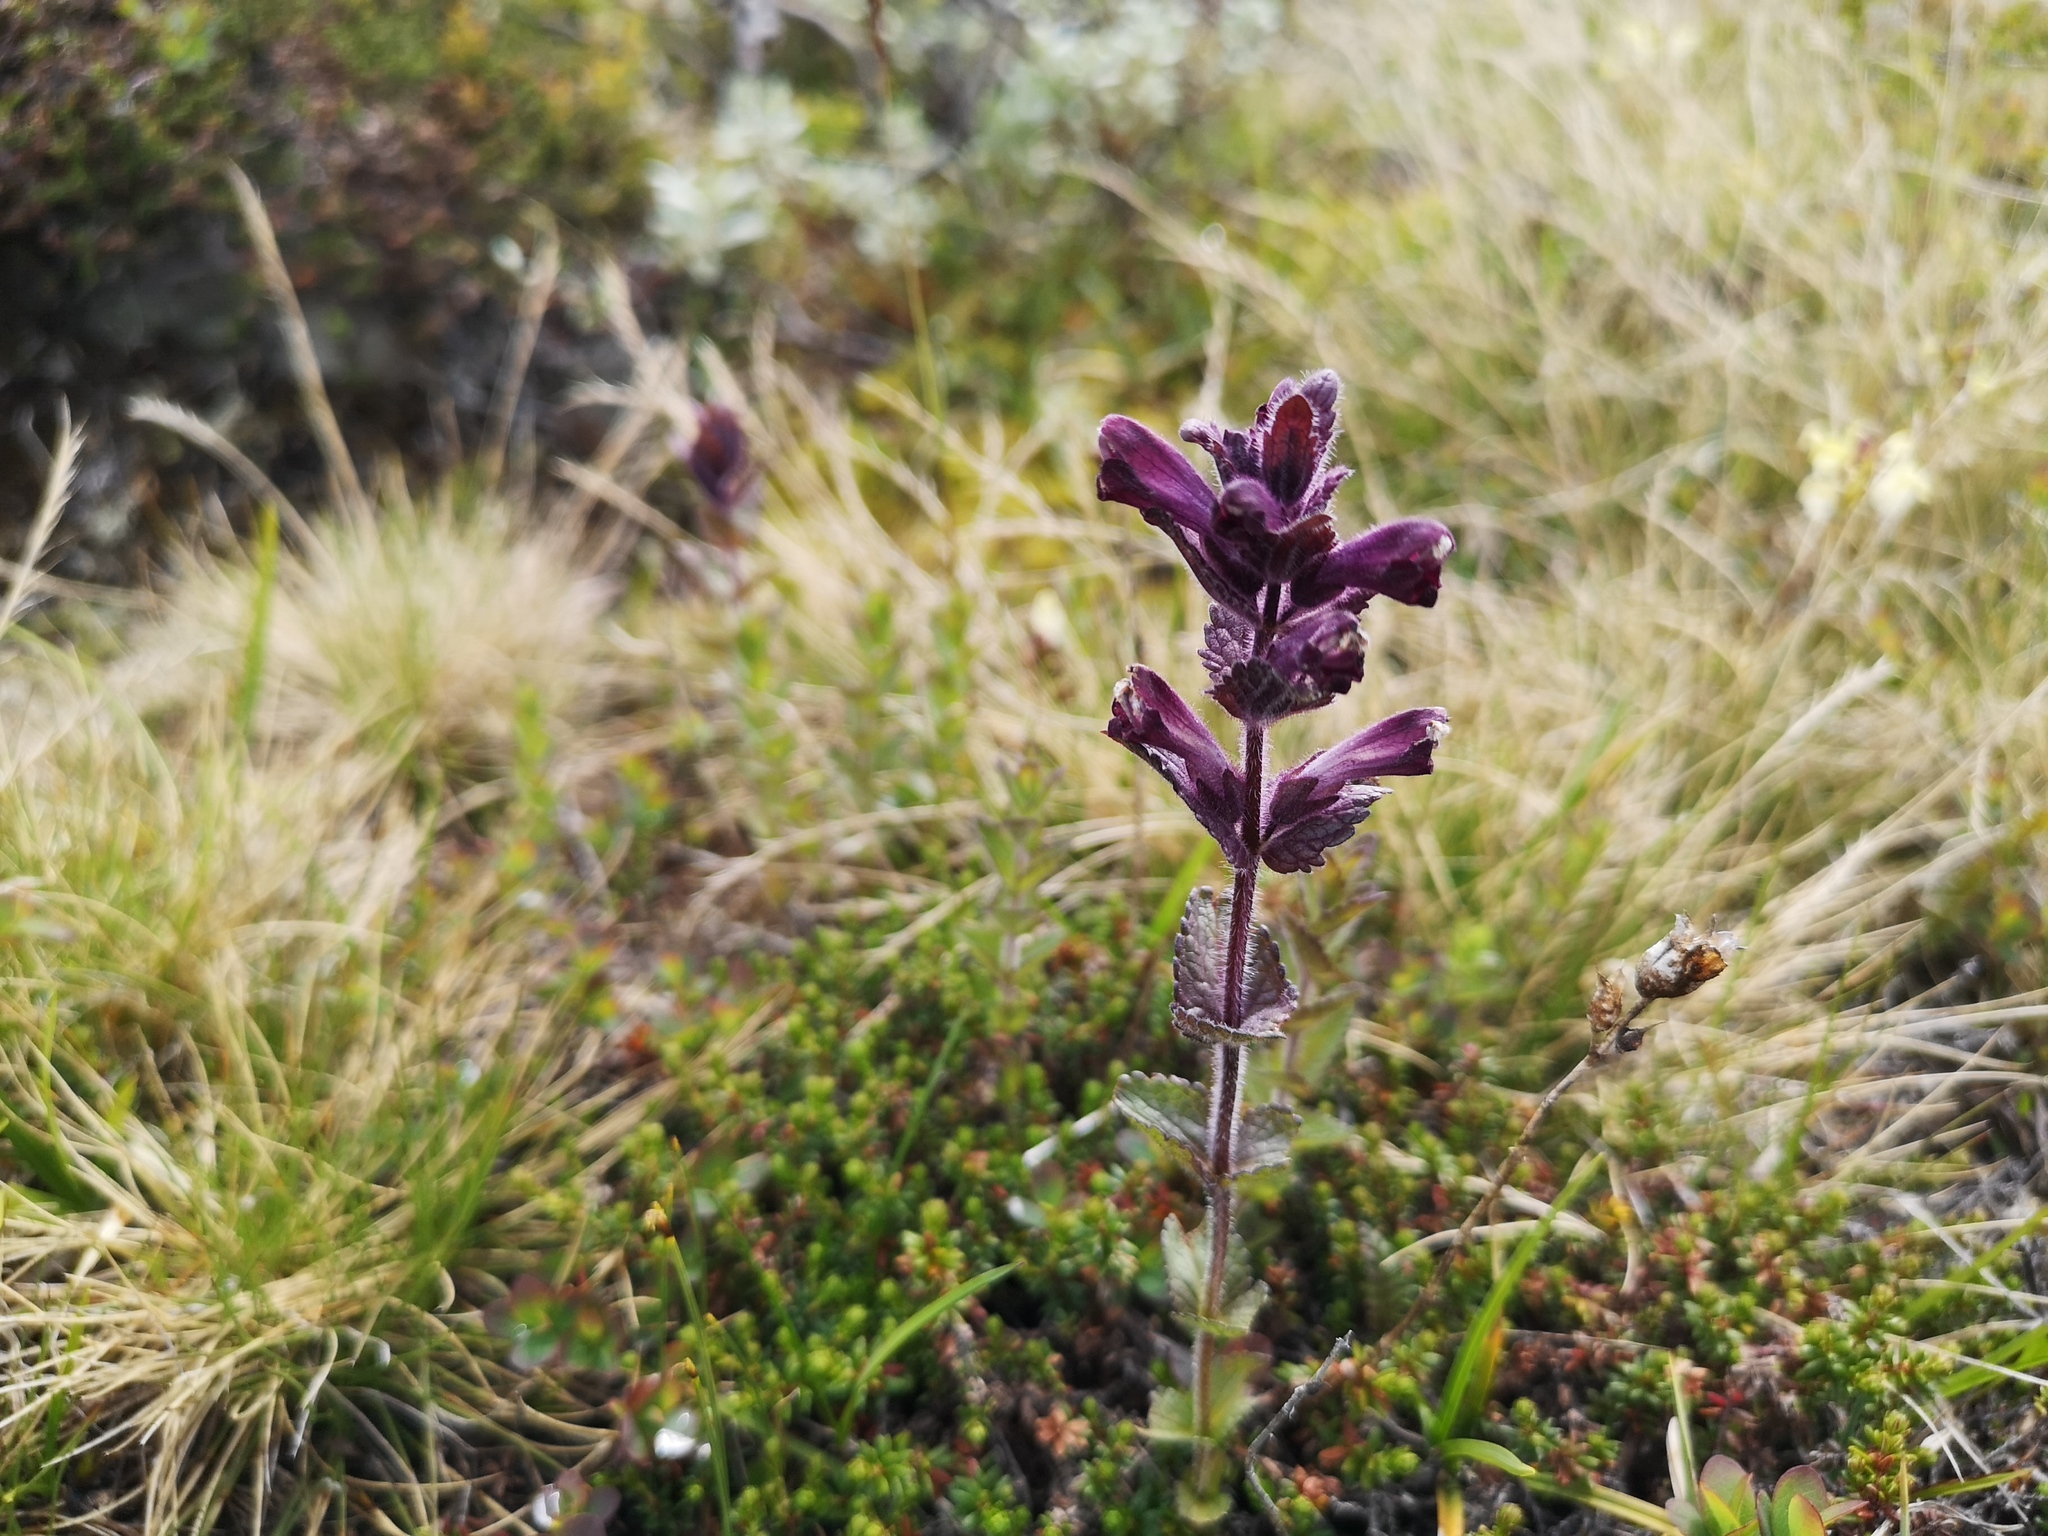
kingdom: Plantae
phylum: Tracheophyta
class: Magnoliopsida
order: Lamiales
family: Orobanchaceae
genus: Bartsia
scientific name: Bartsia alpina
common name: Alpine bartsia
